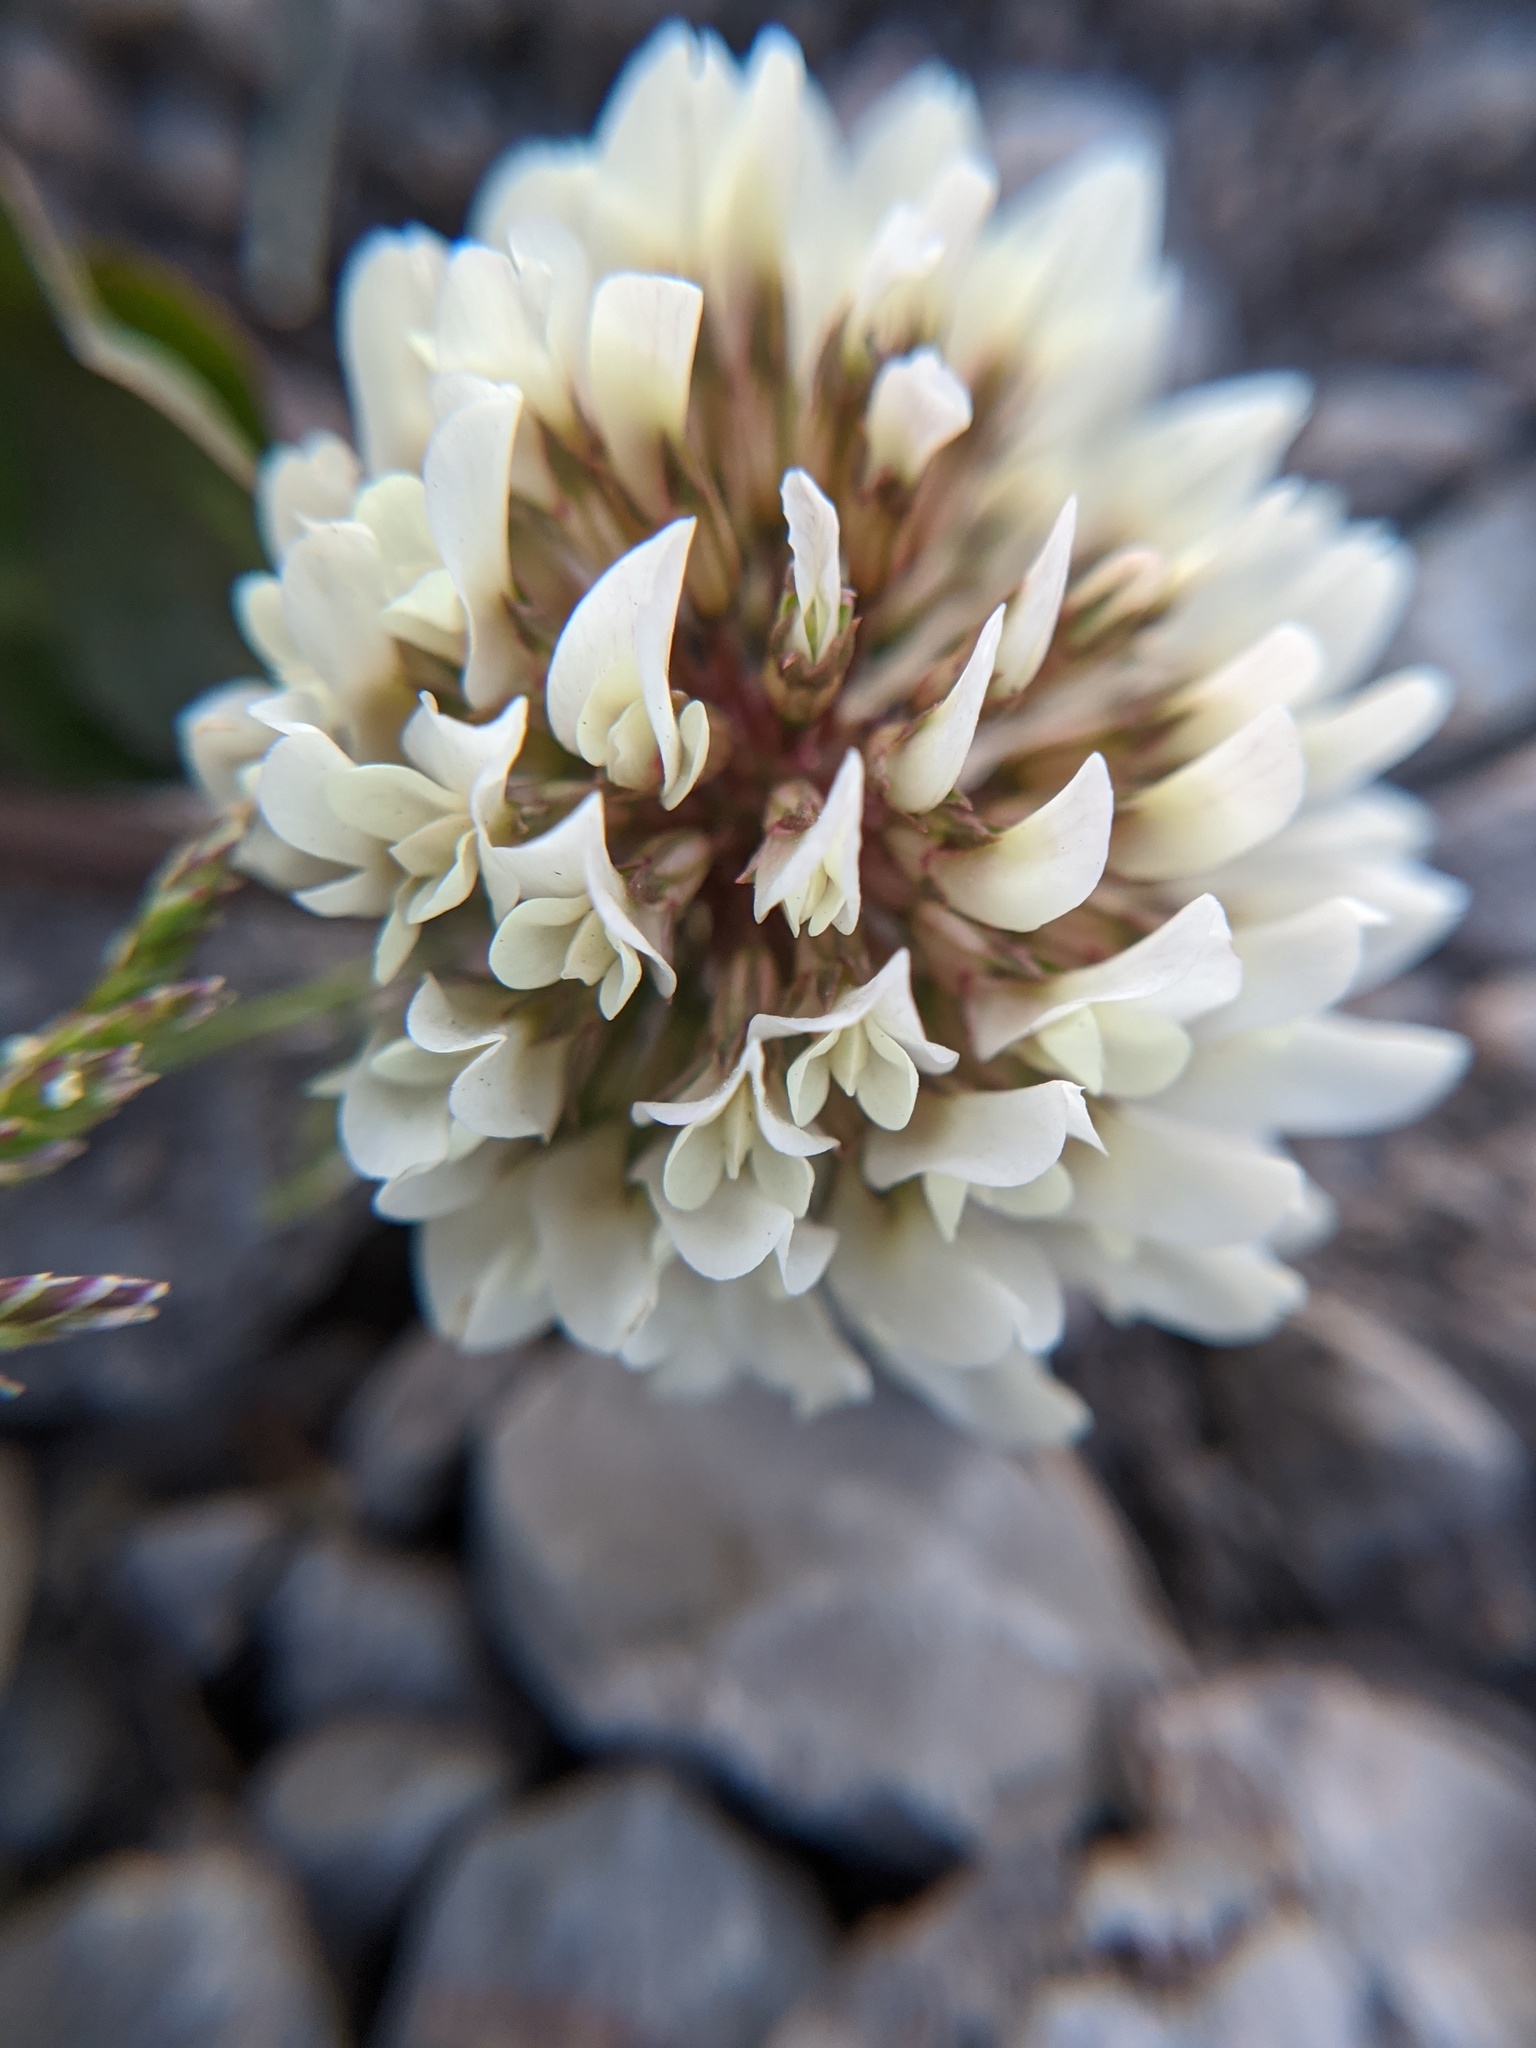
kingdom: Plantae
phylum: Tracheophyta
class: Magnoliopsida
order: Fabales
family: Fabaceae
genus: Trifolium
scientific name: Trifolium repens
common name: White clover
